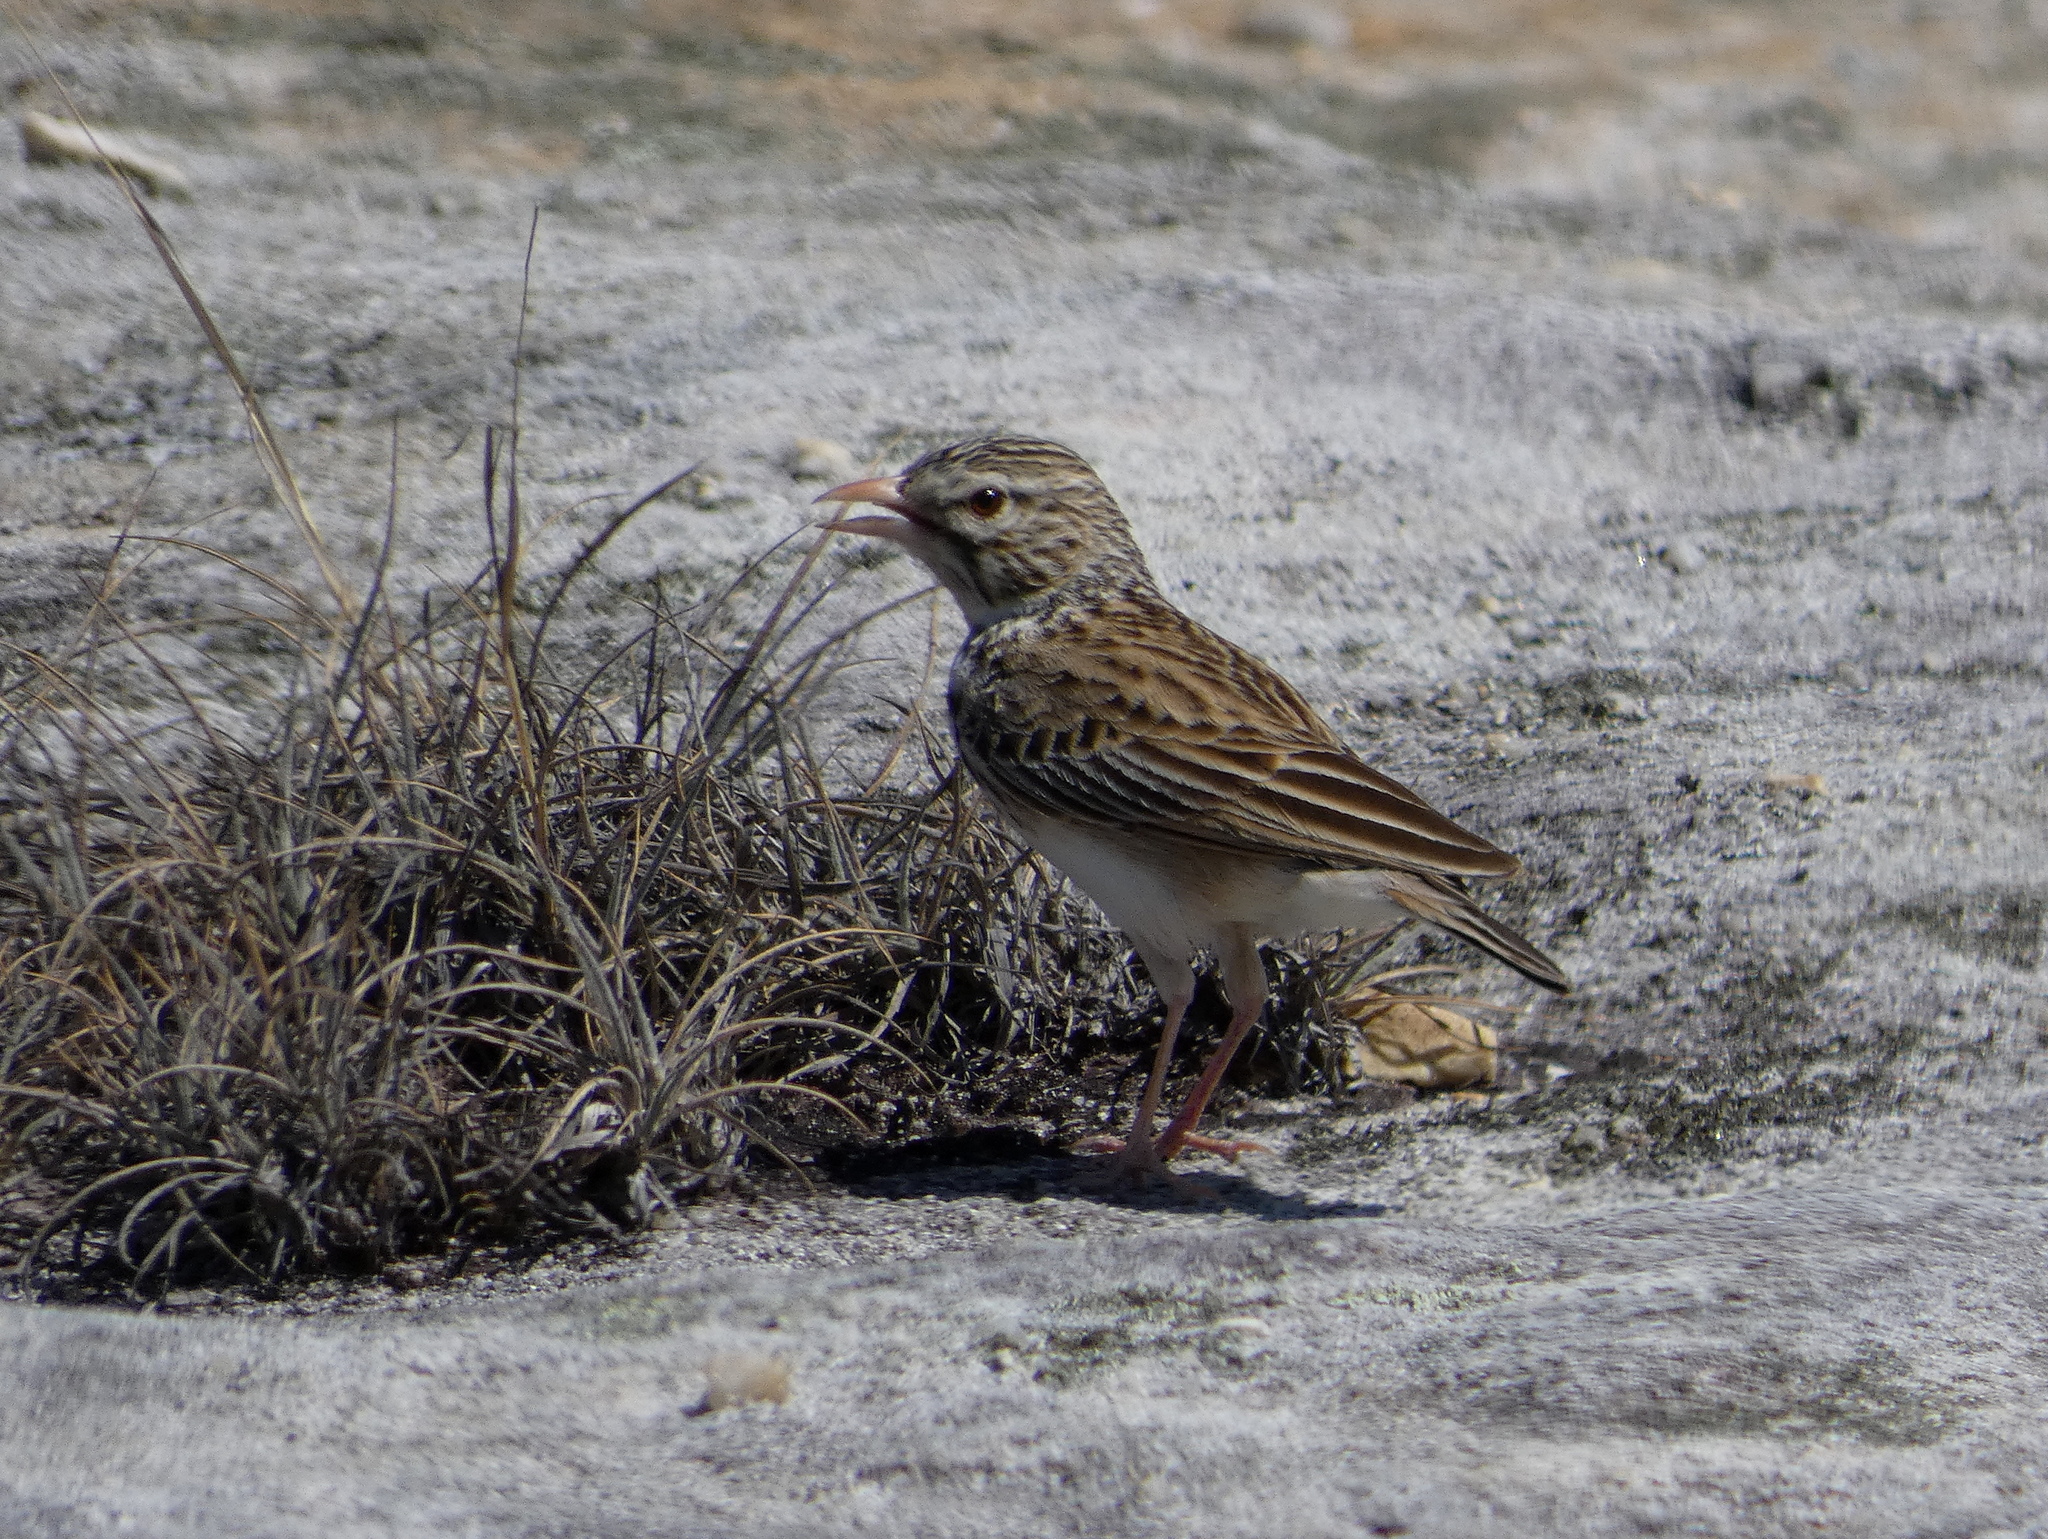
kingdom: Animalia
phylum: Chordata
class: Aves
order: Passeriformes
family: Alaudidae
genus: Mirafra
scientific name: Mirafra hova
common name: Madagascar lark
